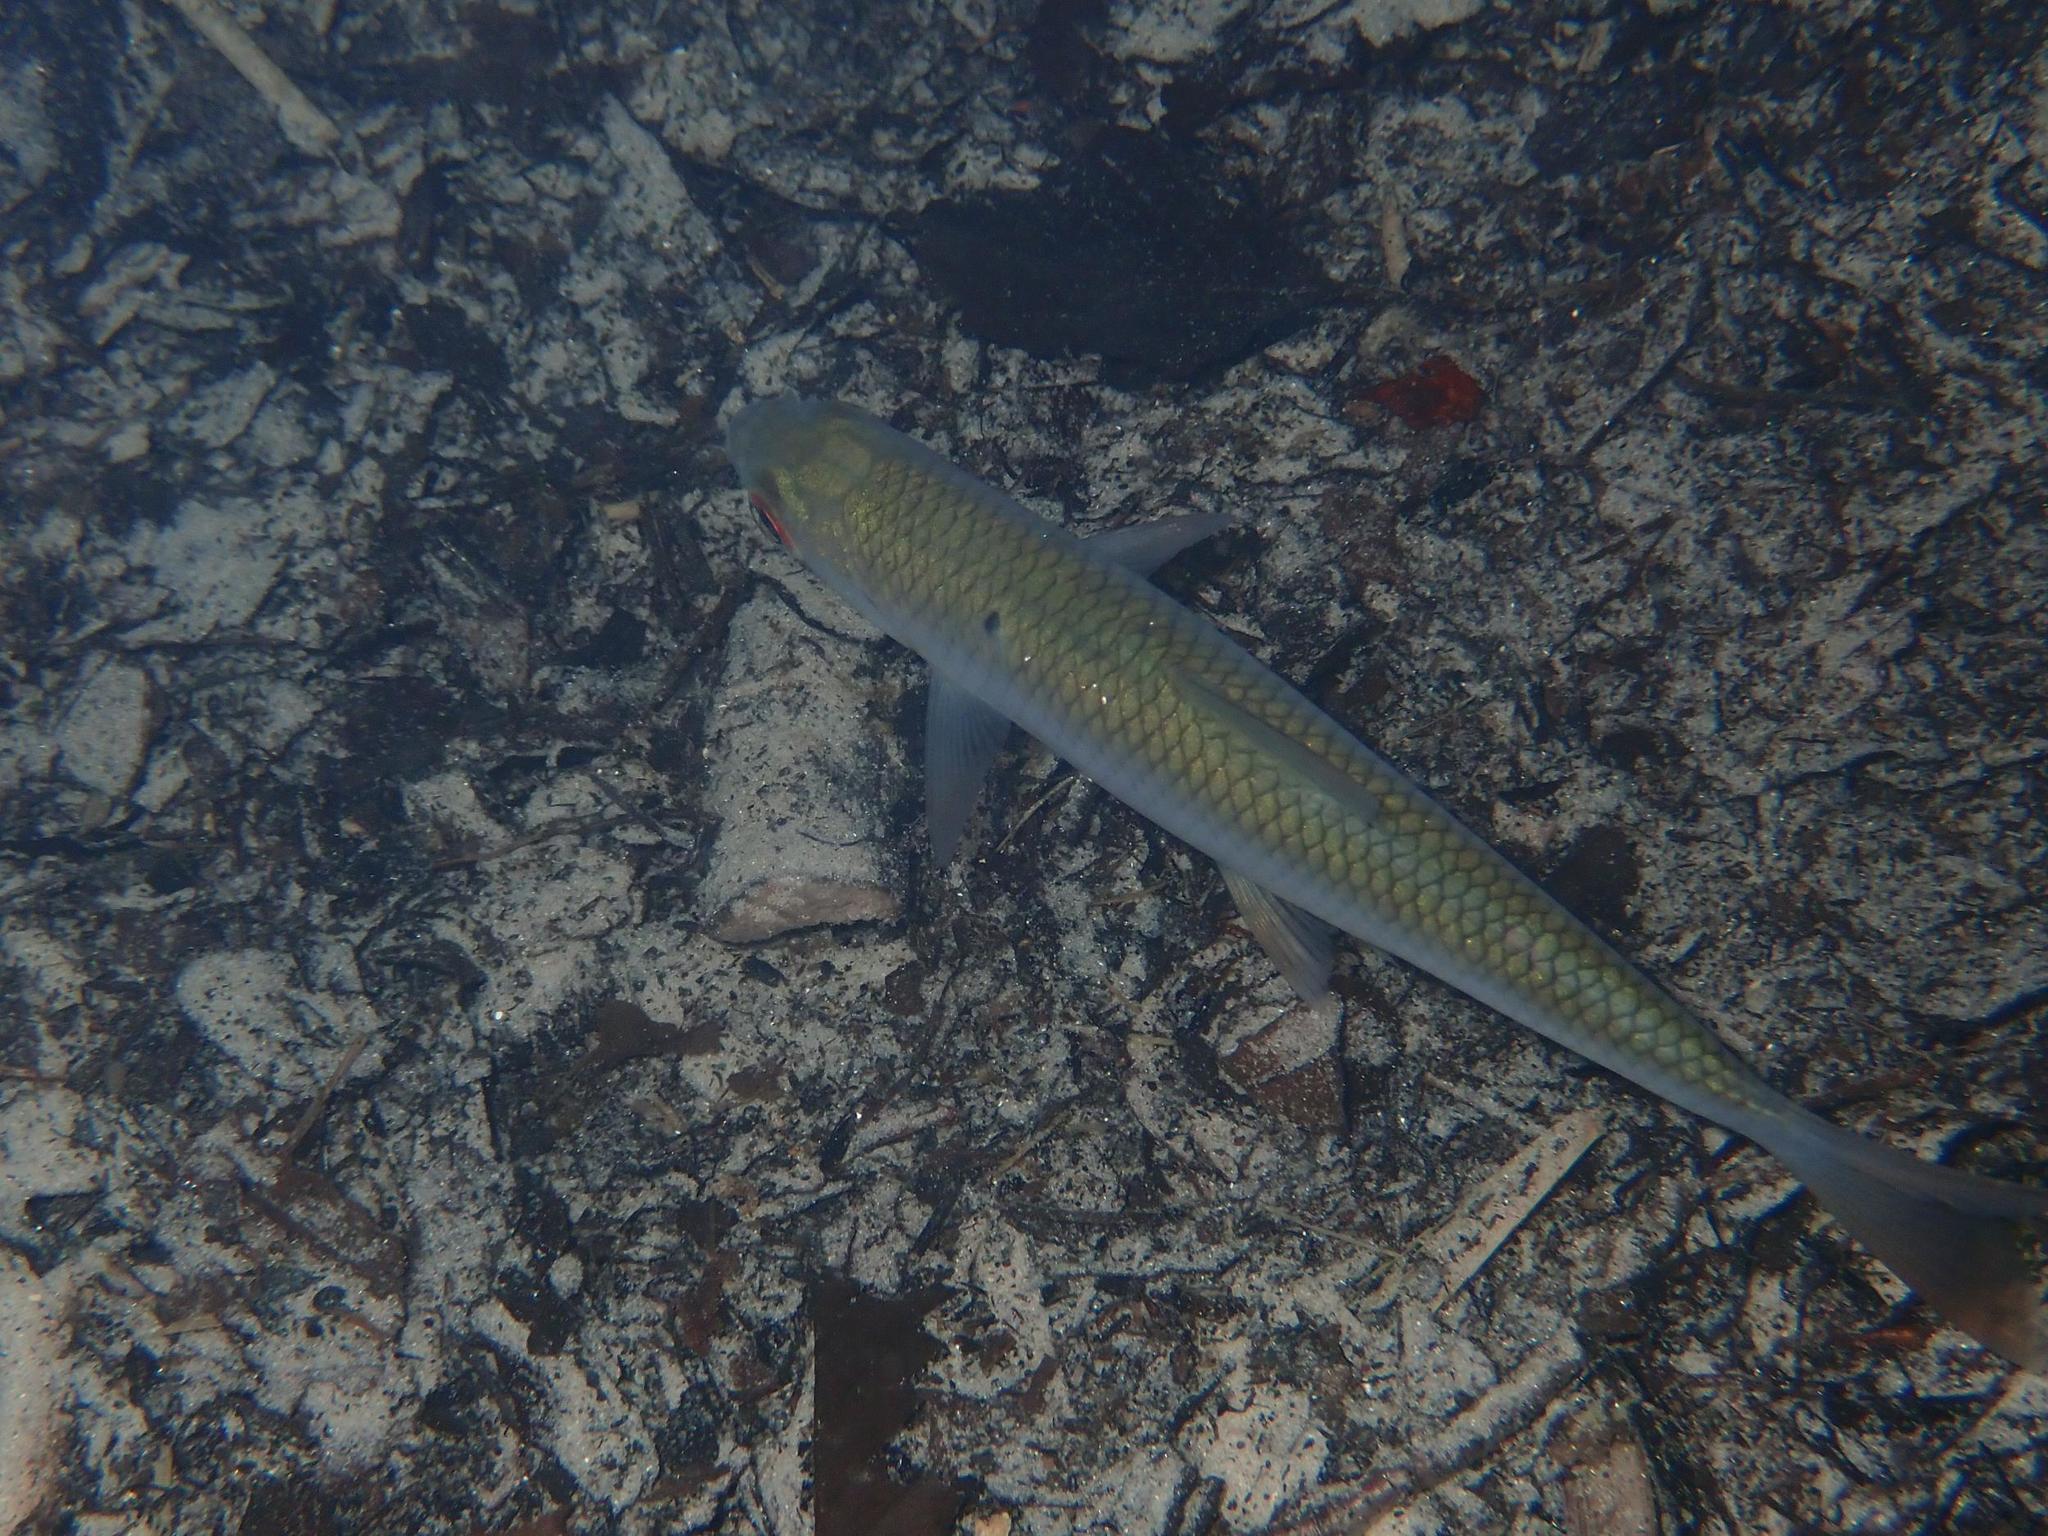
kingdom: Animalia
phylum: Chordata
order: Cypriniformes
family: Cyprinidae
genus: Rutilus
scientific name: Rutilus rutilus
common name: Roach
